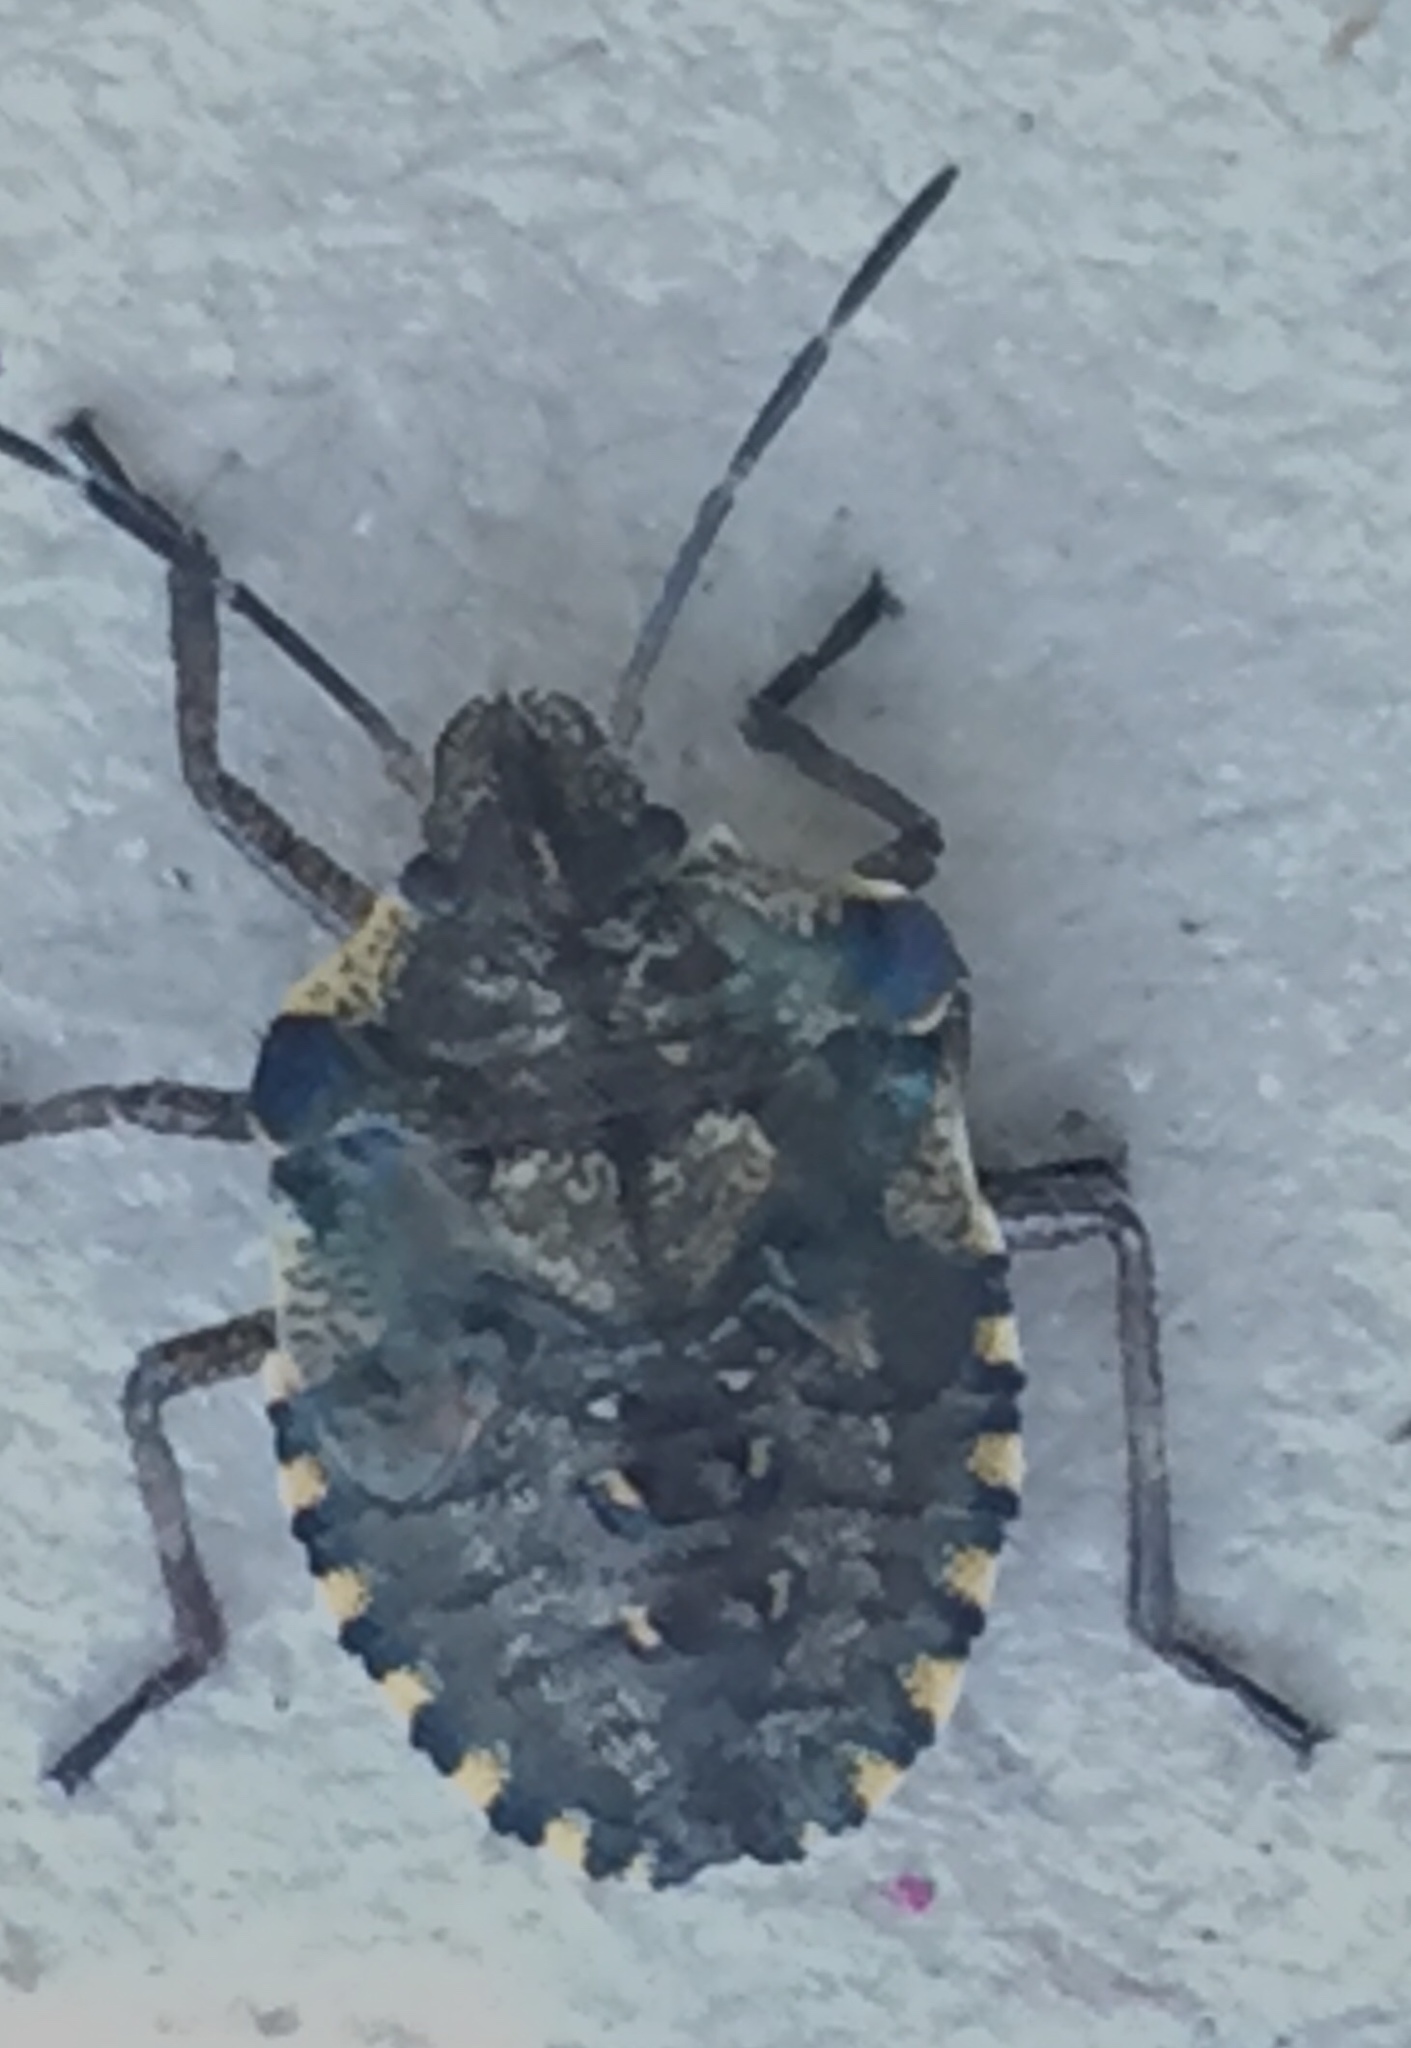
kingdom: Animalia
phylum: Arthropoda
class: Insecta
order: Hemiptera
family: Pentatomidae
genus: Pentatoma
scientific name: Pentatoma rufipes
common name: Forest bug
